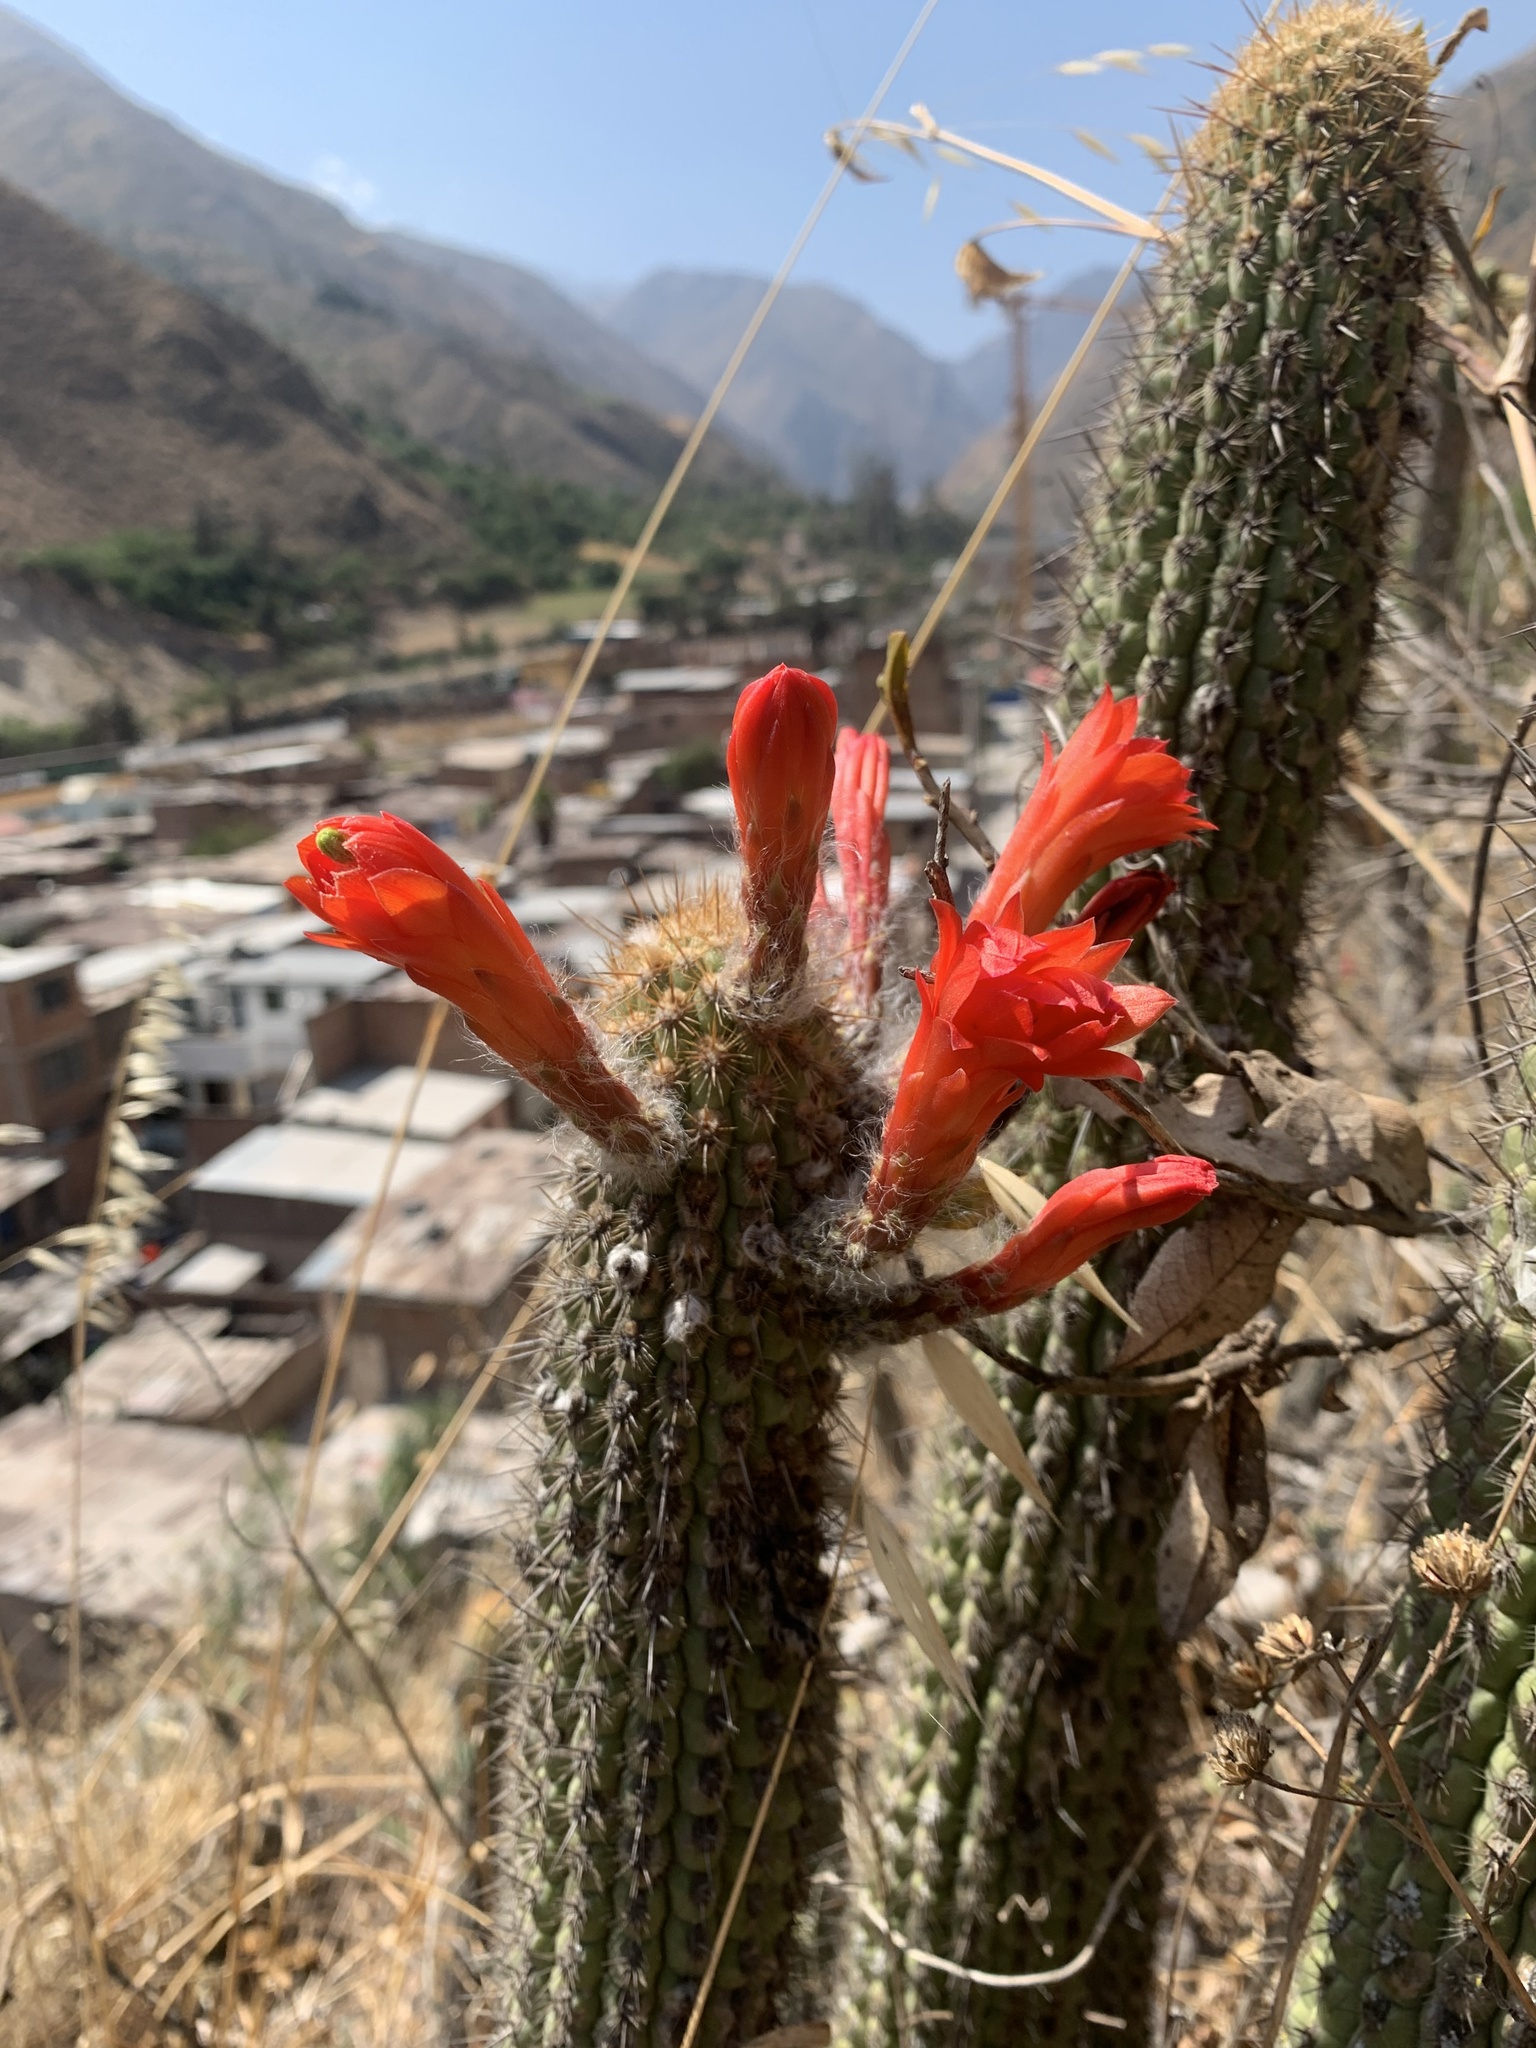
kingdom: Plantae
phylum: Tracheophyta
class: Magnoliopsida
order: Caryophyllales
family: Cactaceae
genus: Borzicactus
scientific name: Borzicactus acanthurus
